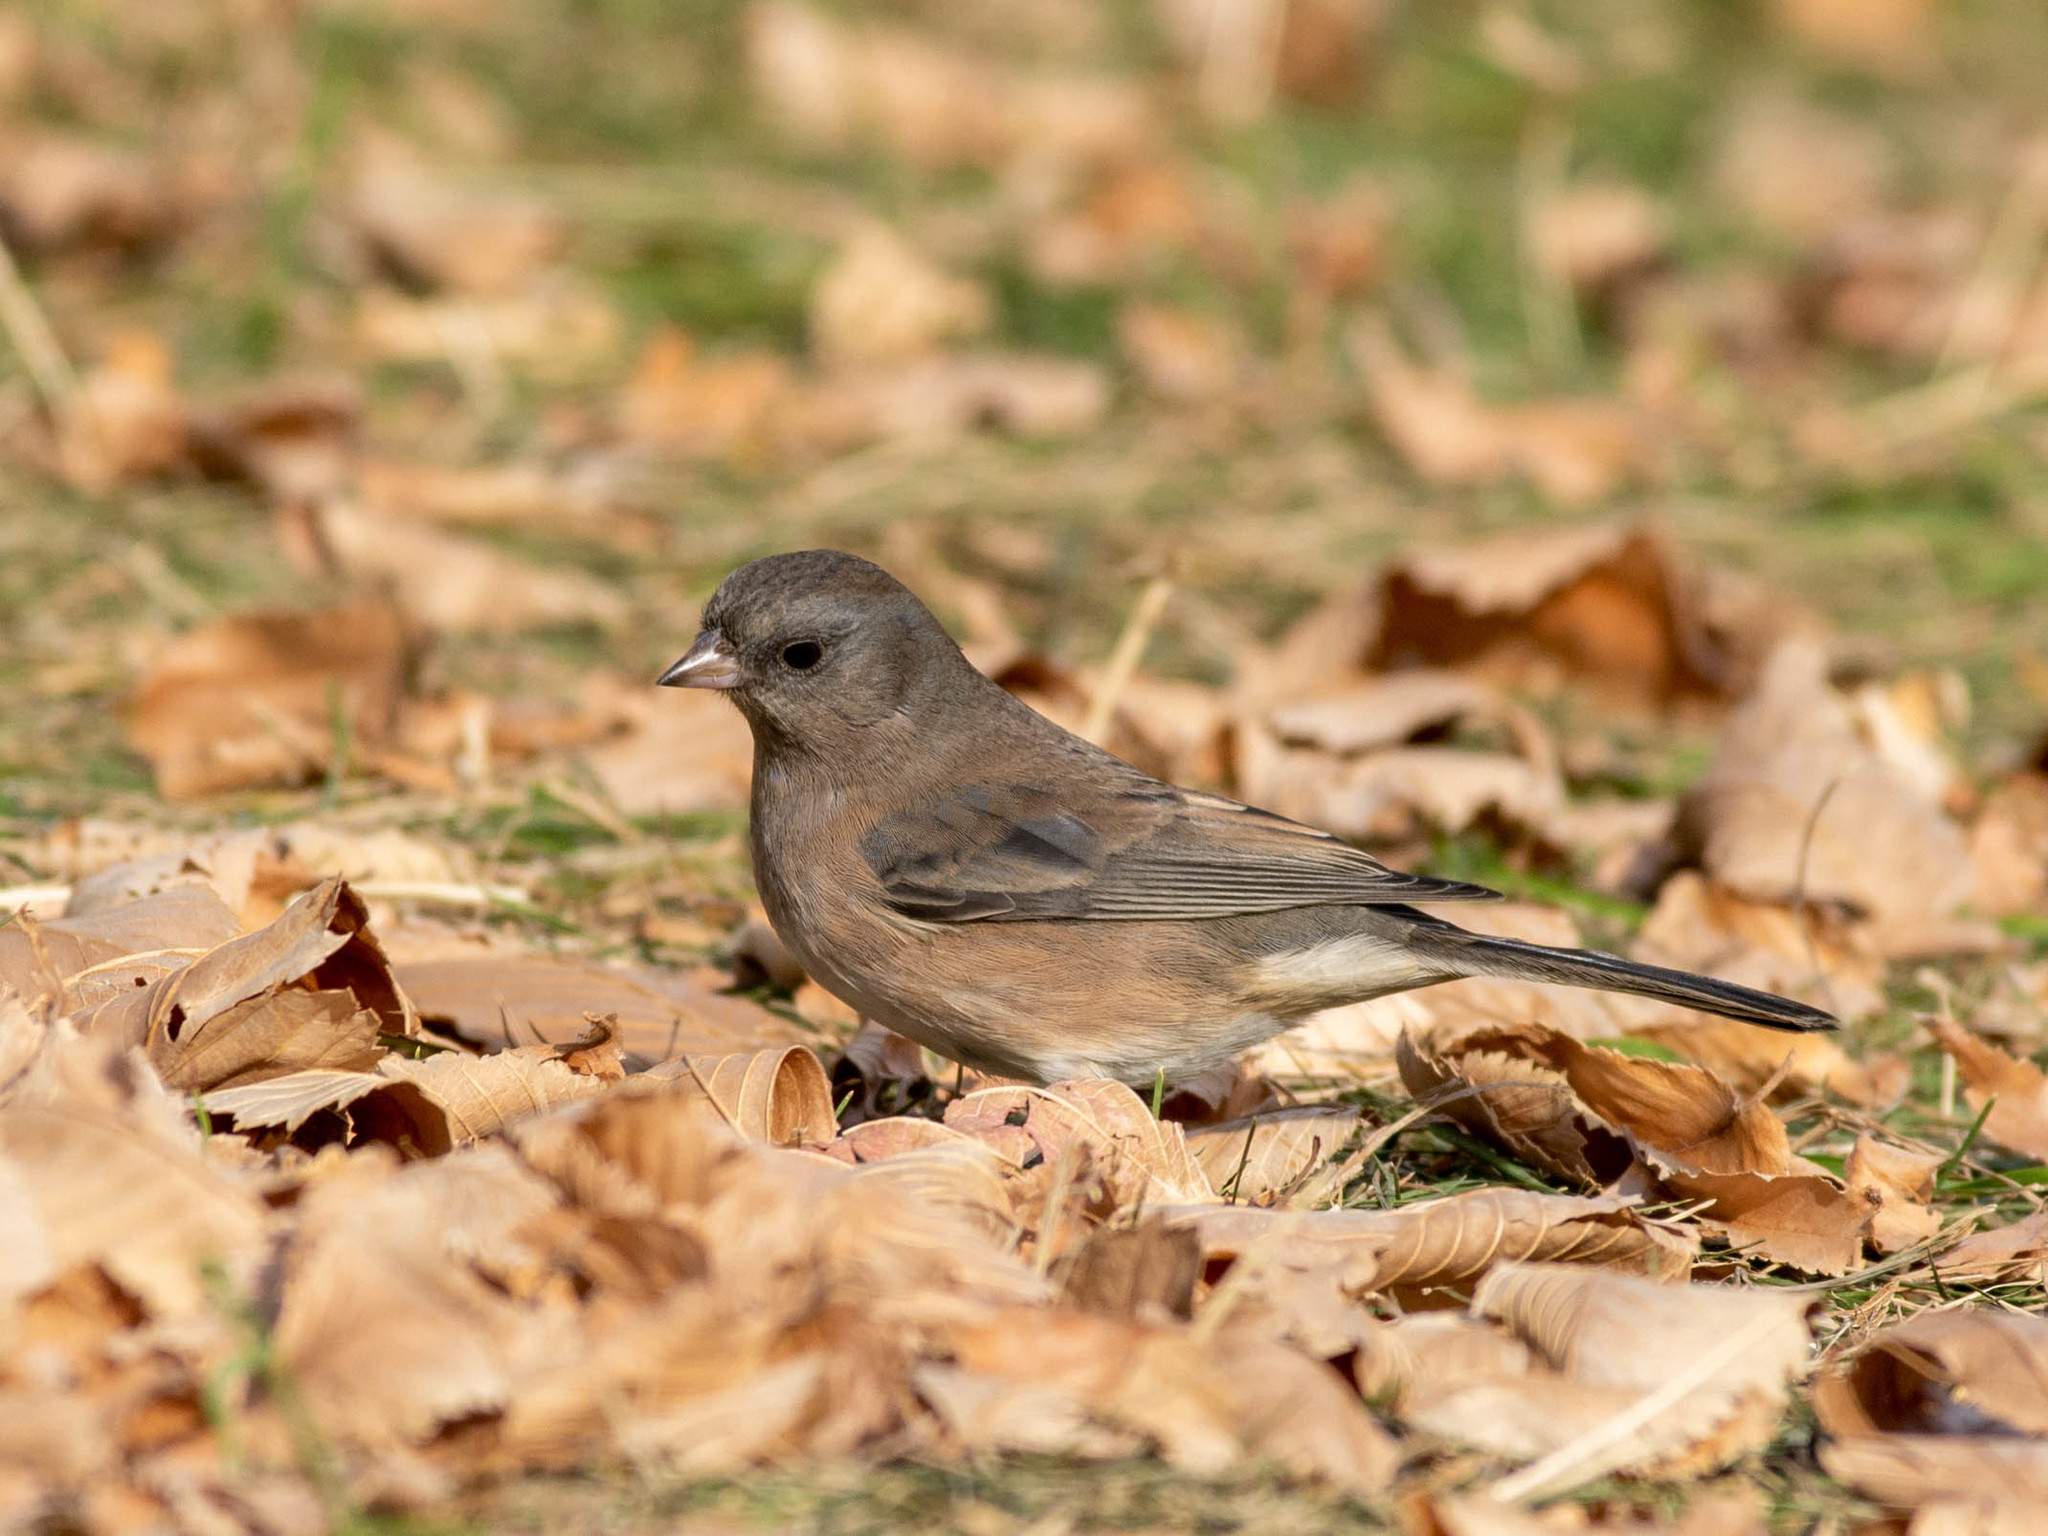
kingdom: Animalia
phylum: Chordata
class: Aves
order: Passeriformes
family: Passerellidae
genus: Junco
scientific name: Junco hyemalis
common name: Dark-eyed junco
